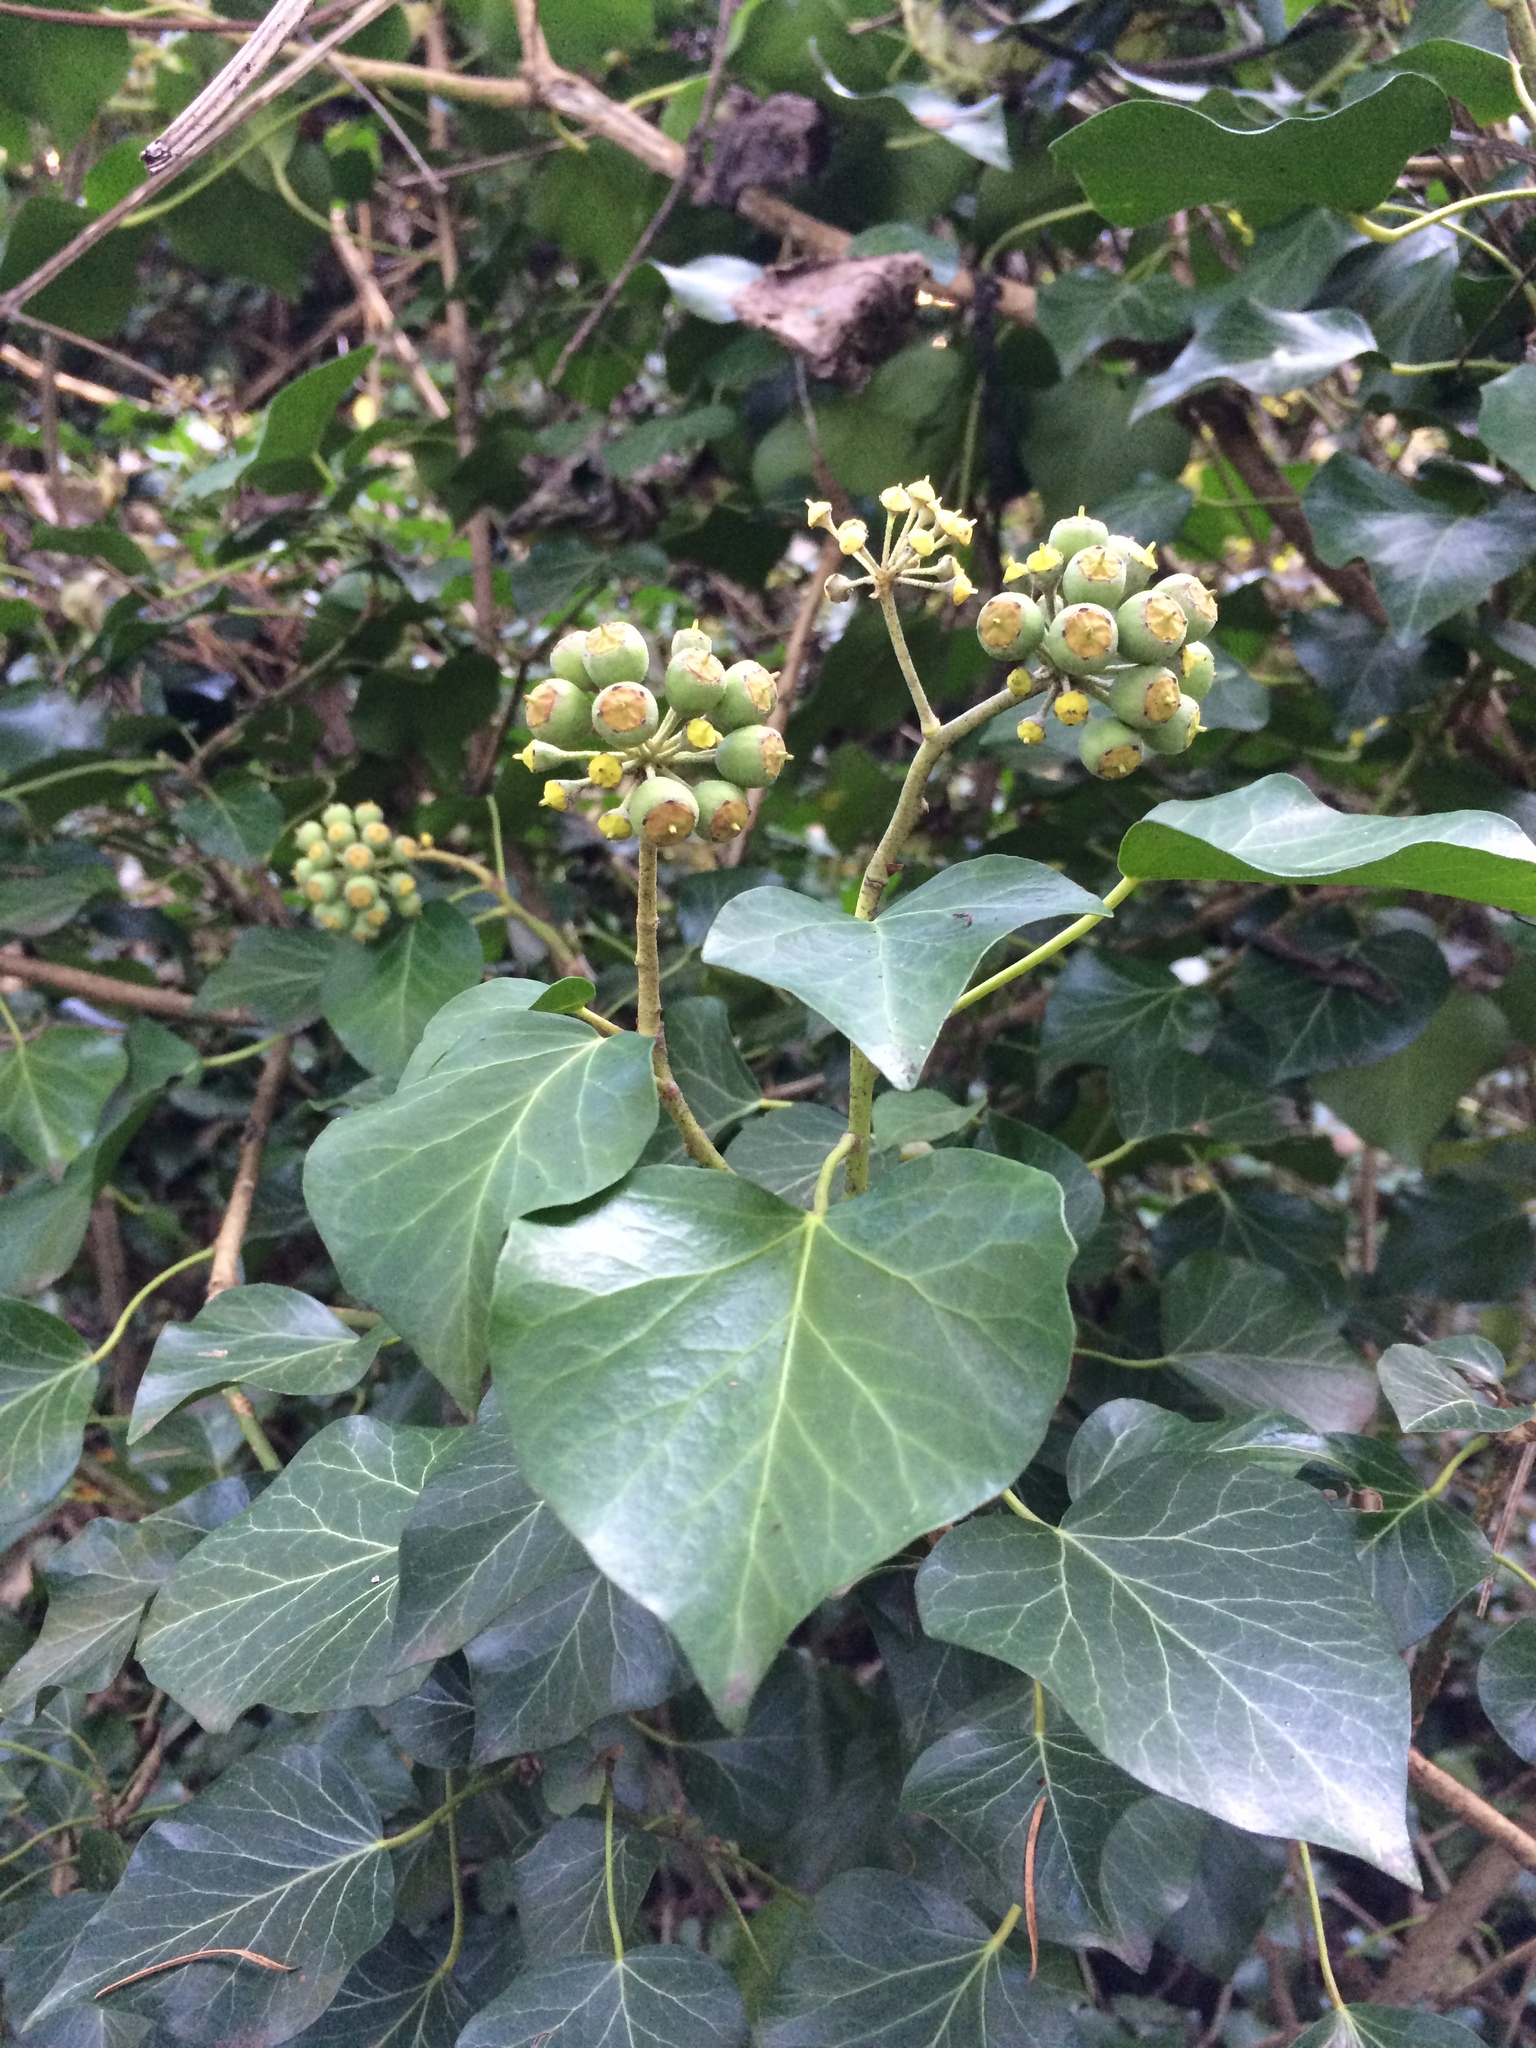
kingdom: Plantae
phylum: Tracheophyta
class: Magnoliopsida
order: Apiales
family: Araliaceae
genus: Hedera
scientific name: Hedera helix
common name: Ivy
